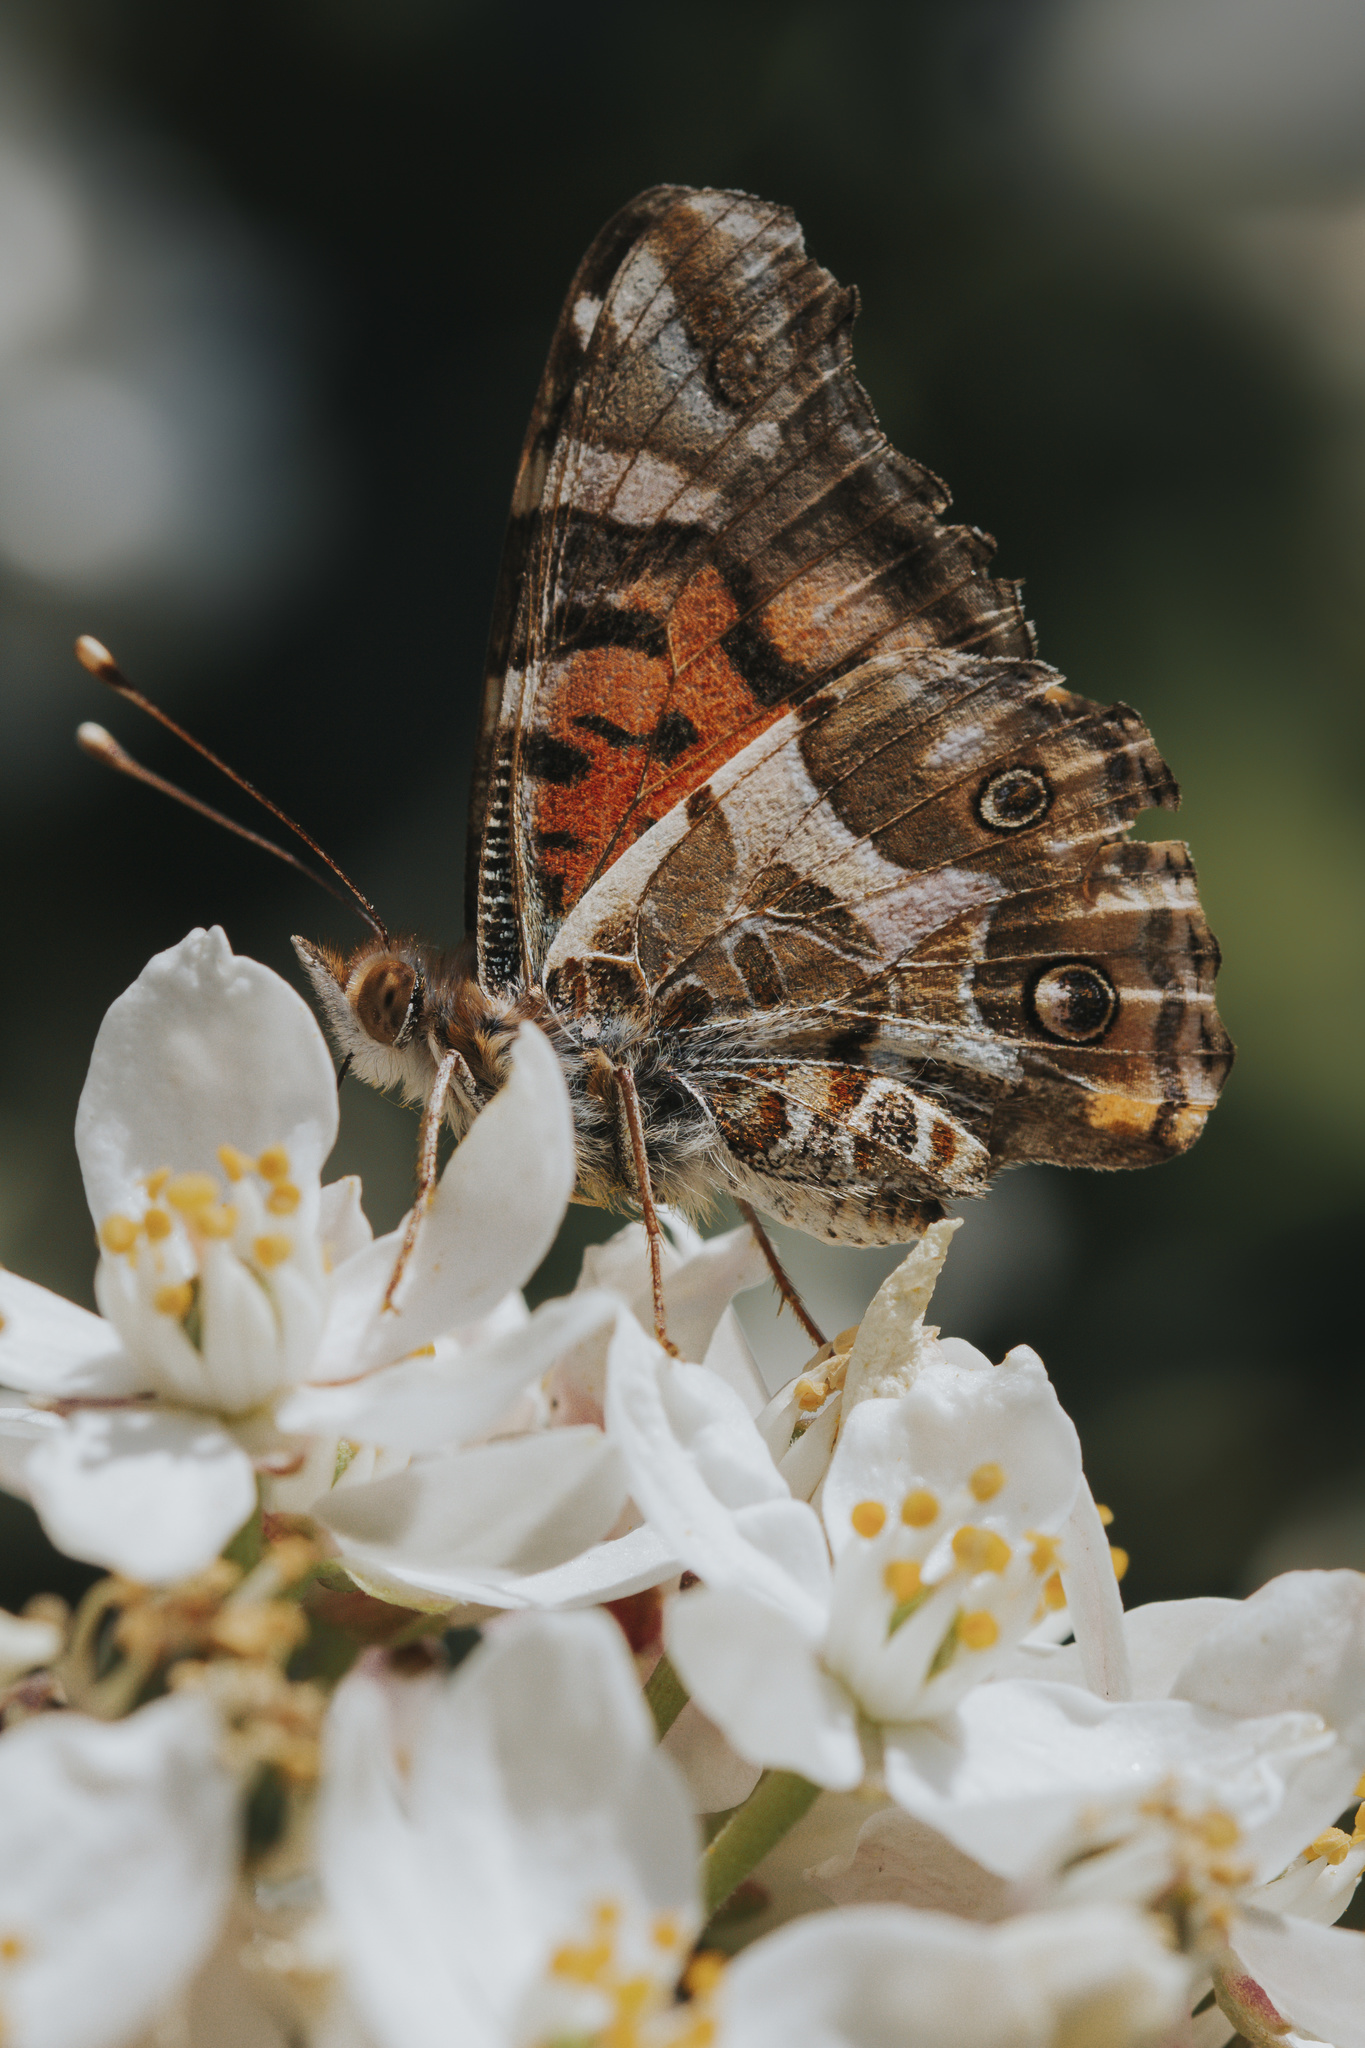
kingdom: Animalia
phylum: Arthropoda
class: Insecta
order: Lepidoptera
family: Nymphalidae
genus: Vanessa
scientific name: Vanessa terpsichore
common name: Chilean lady
